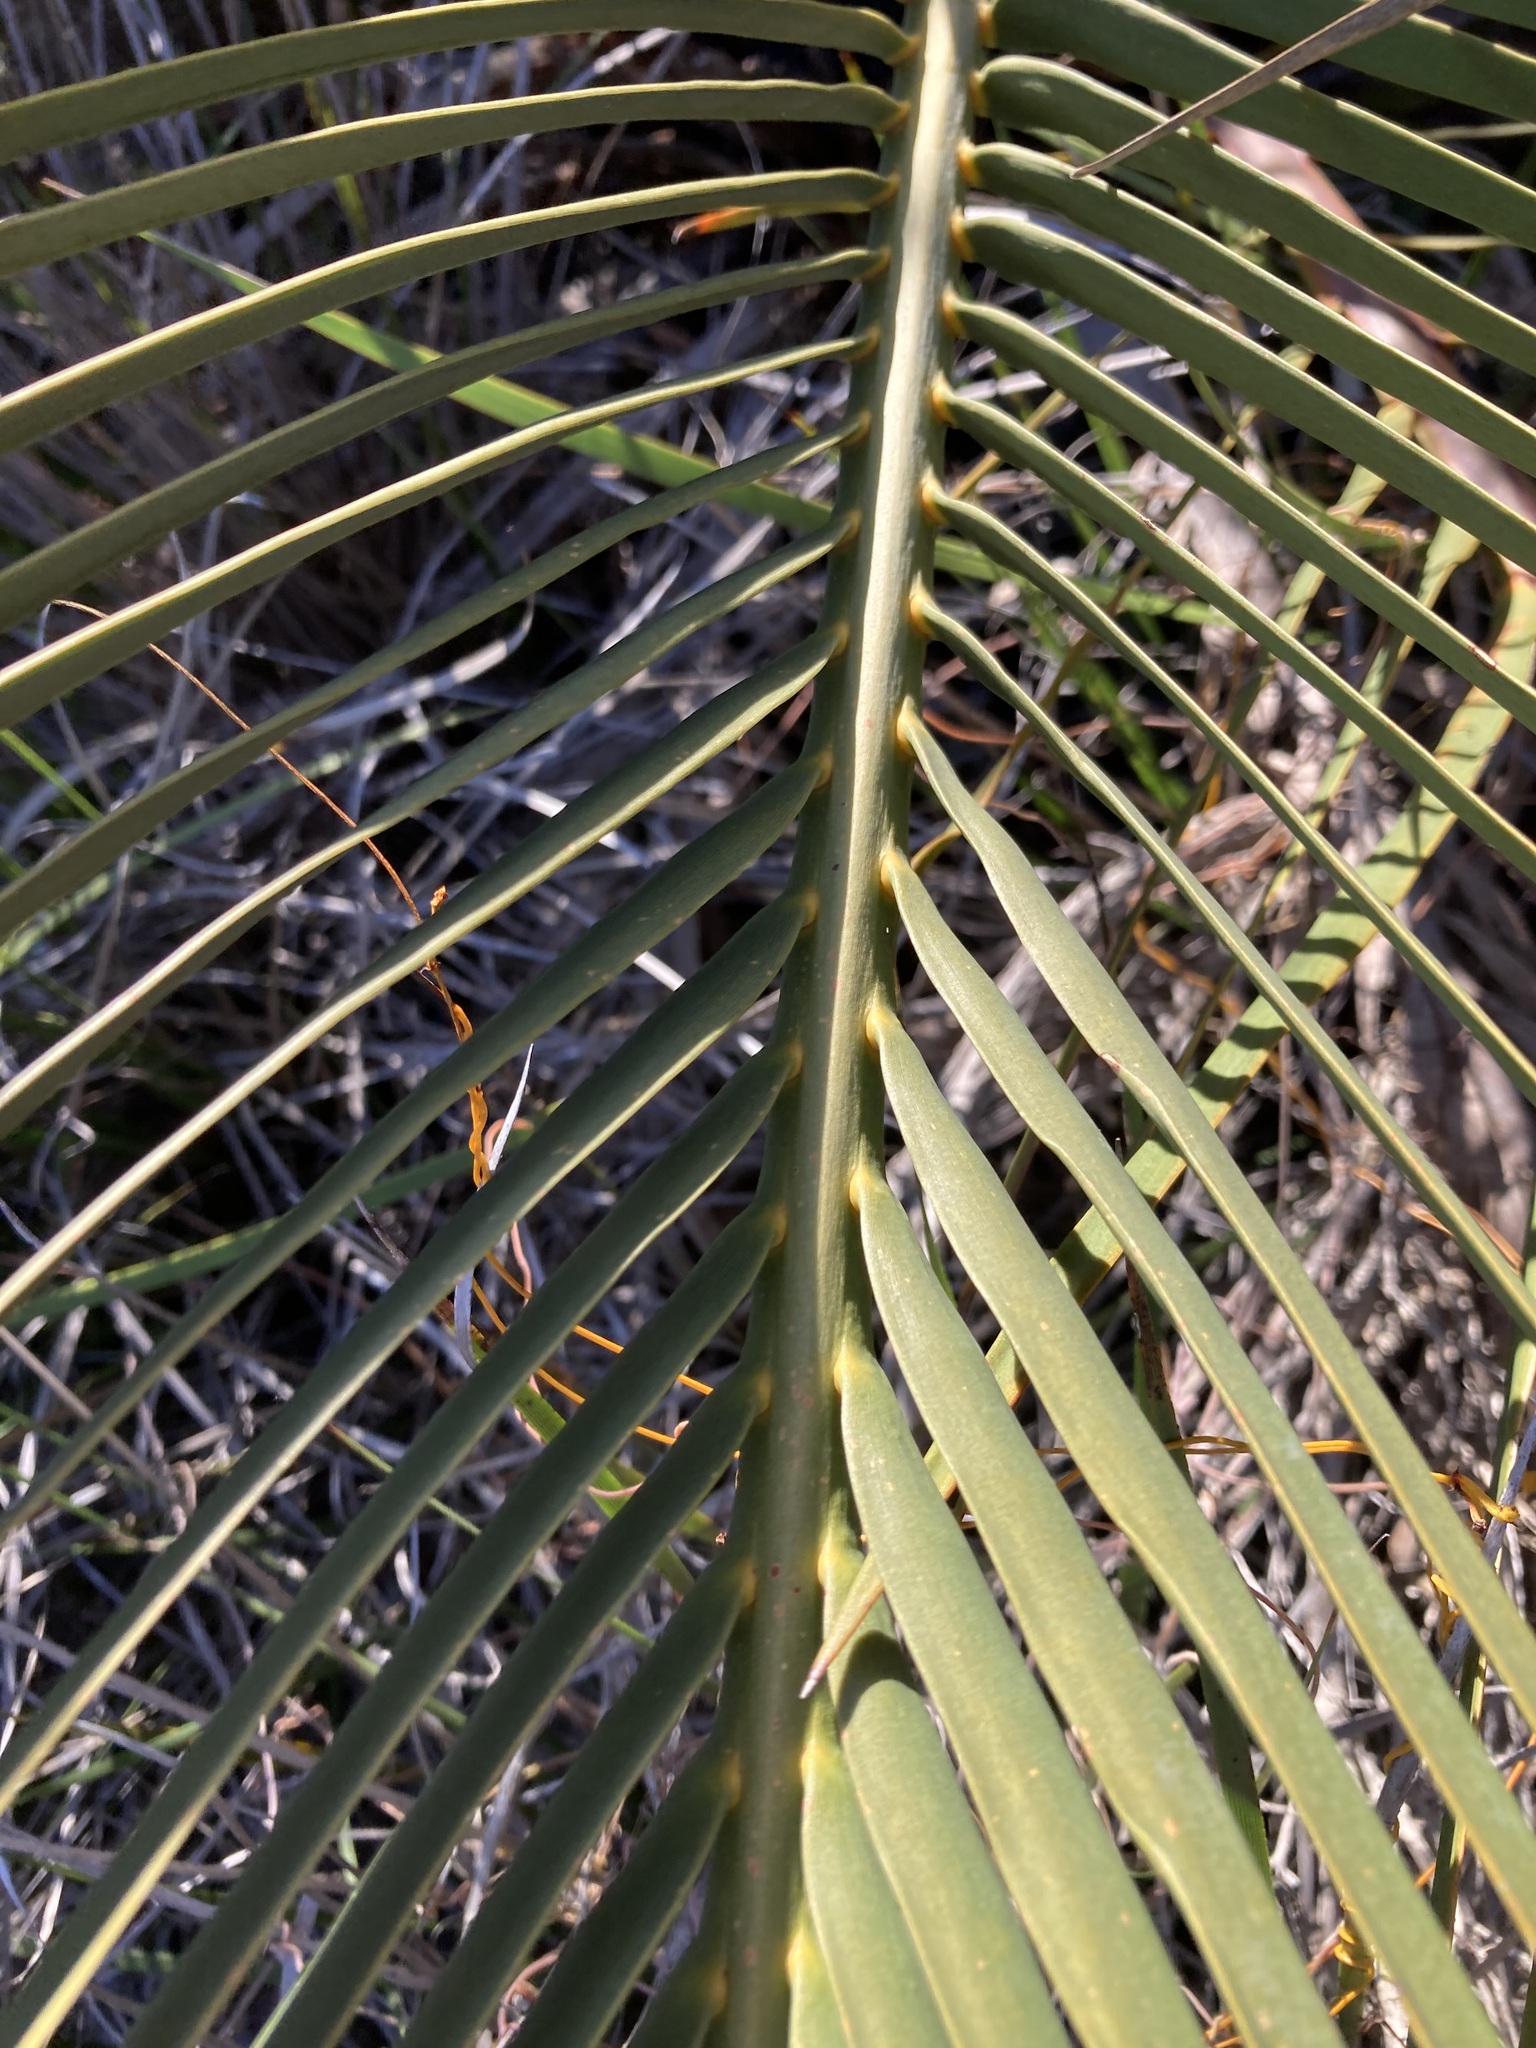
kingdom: Plantae
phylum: Tracheophyta
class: Cycadopsida
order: Cycadales
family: Zamiaceae
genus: Macrozamia
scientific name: Macrozamia fraseri
